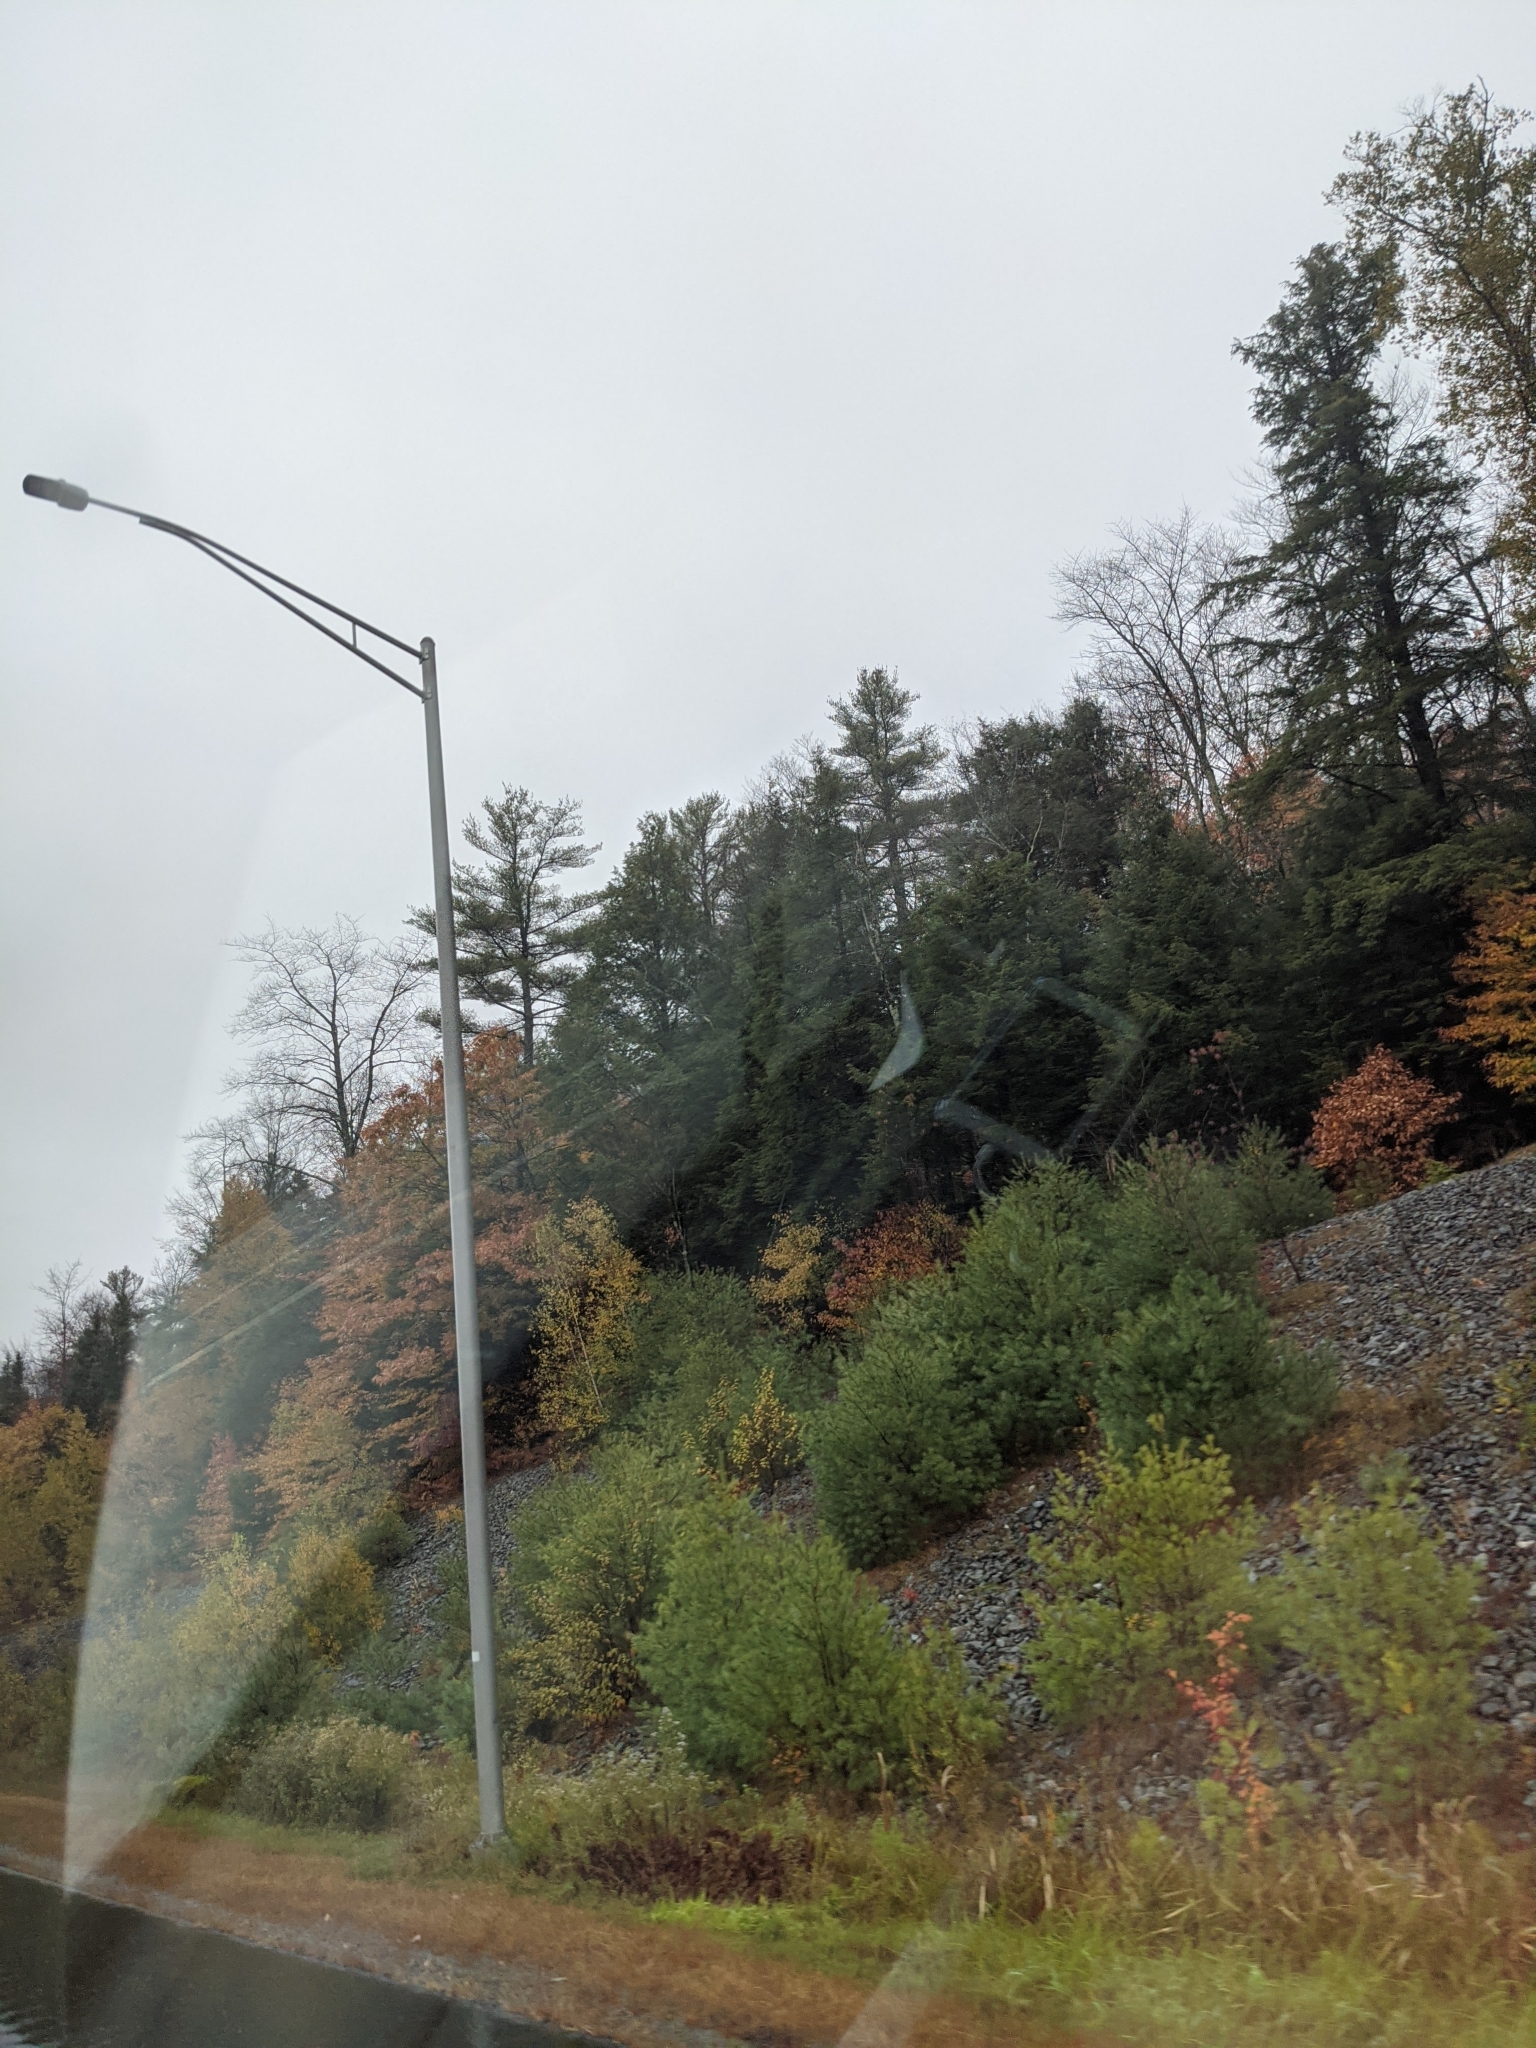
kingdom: Plantae
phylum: Tracheophyta
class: Pinopsida
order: Pinales
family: Pinaceae
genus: Pinus
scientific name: Pinus strobus
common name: Weymouth pine
